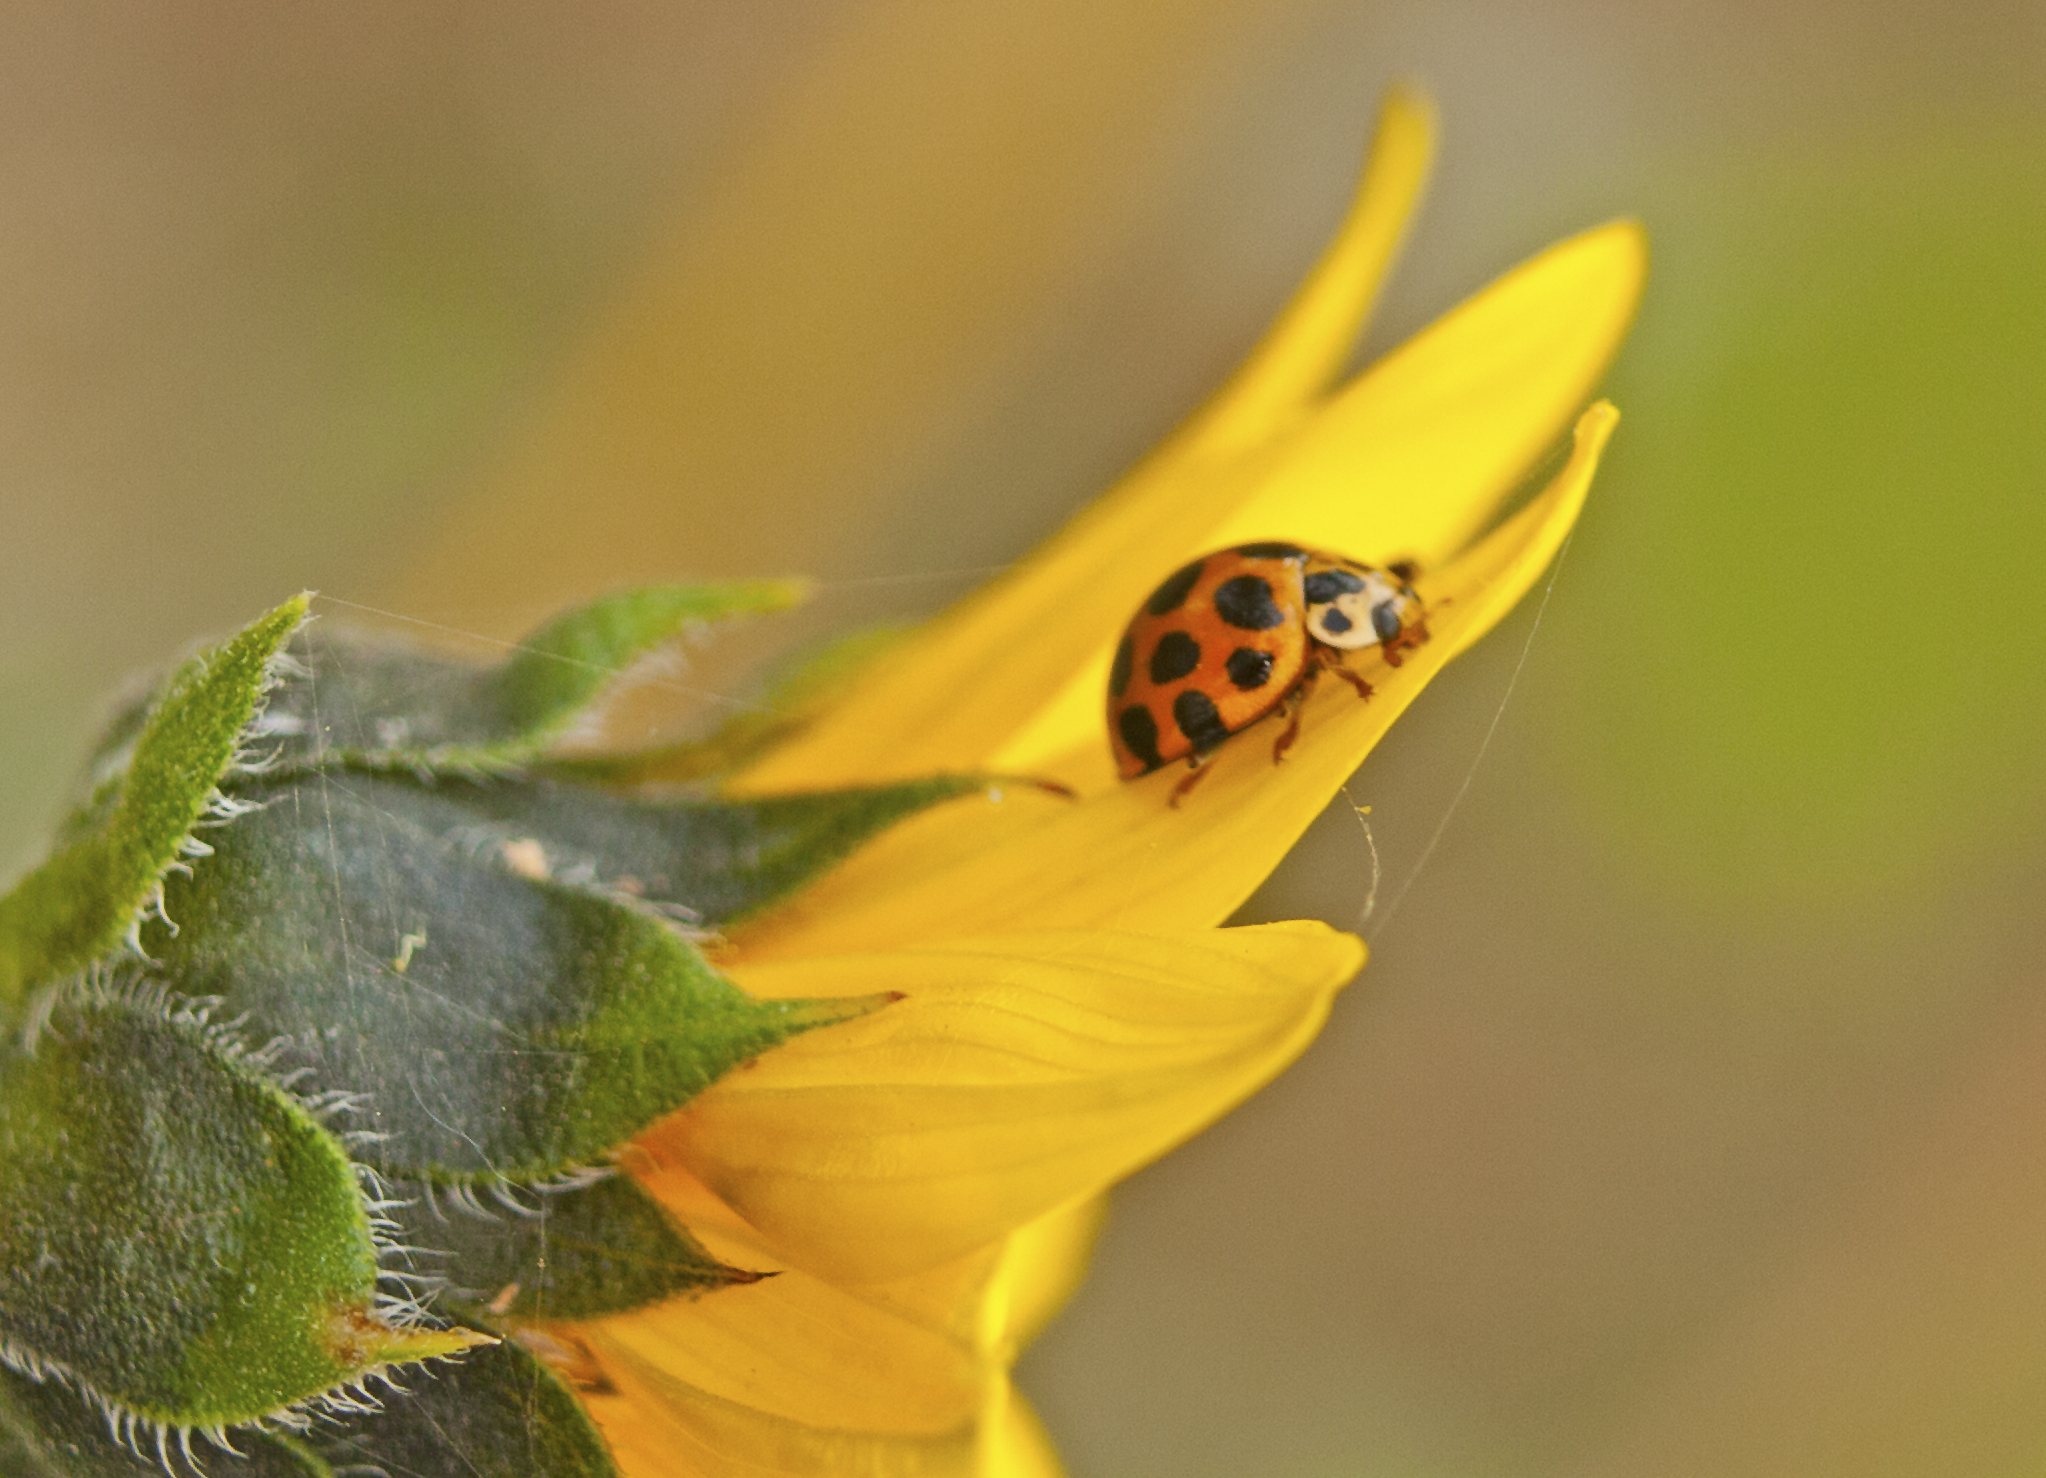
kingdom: Animalia
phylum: Arthropoda
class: Insecta
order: Coleoptera
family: Coccinellidae
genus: Harmonia
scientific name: Harmonia conformis
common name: Common spotted ladybird beetle
